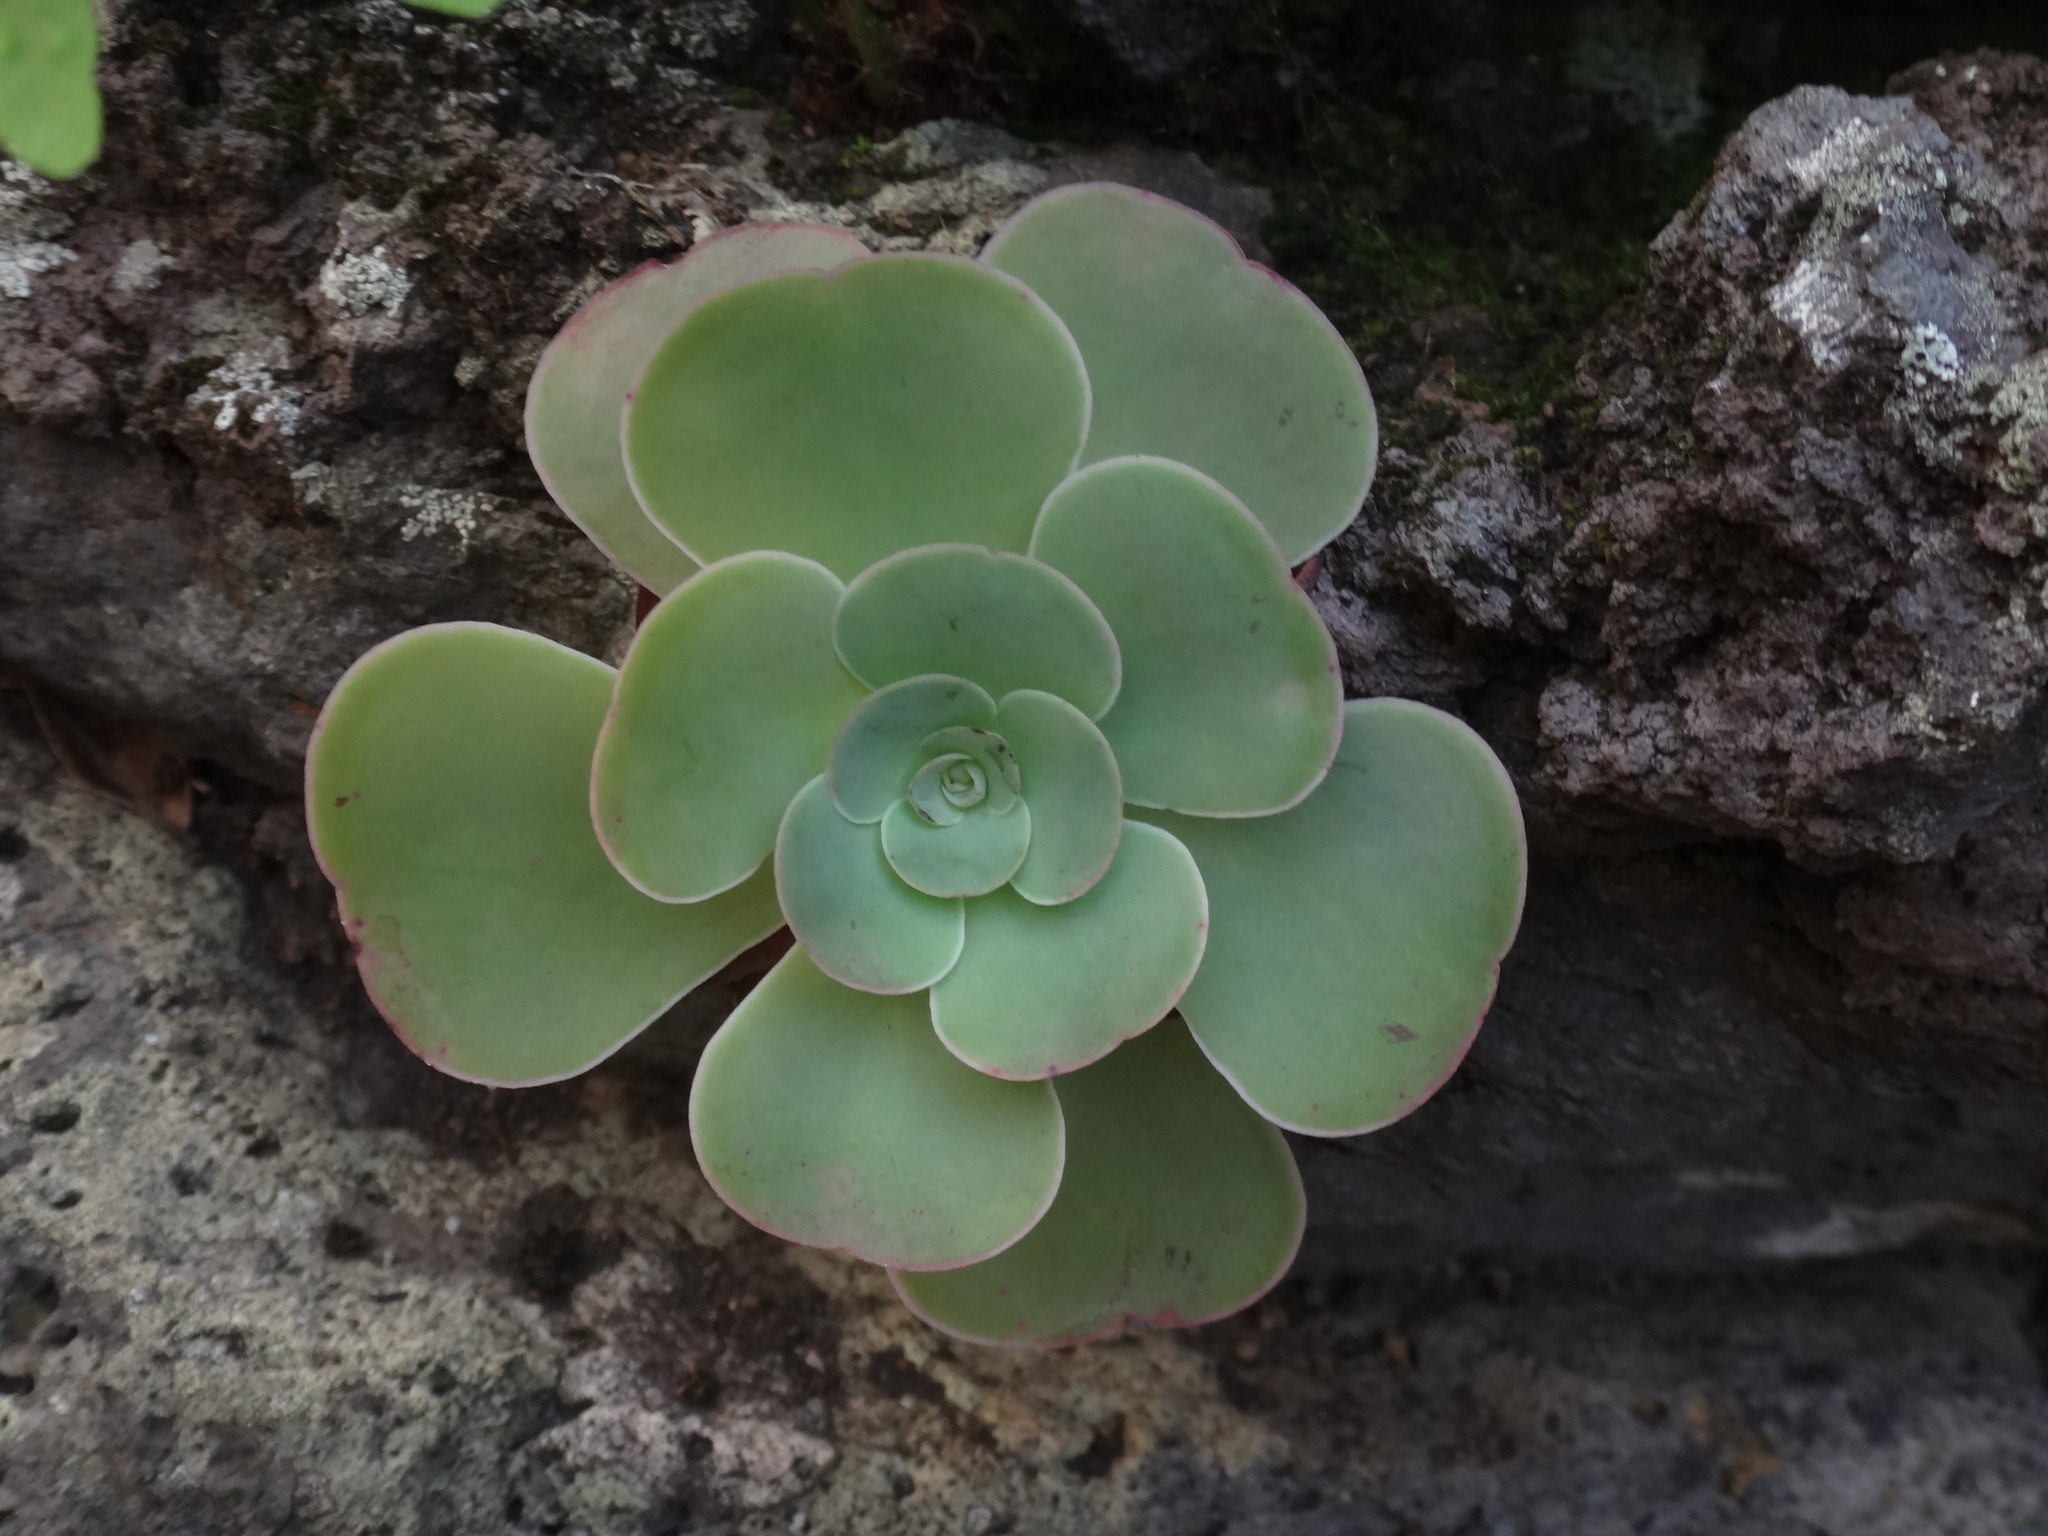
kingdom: Plantae
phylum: Tracheophyta
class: Magnoliopsida
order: Saxifragales
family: Crassulaceae
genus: Aeonium
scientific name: Aeonium diplocyclum
